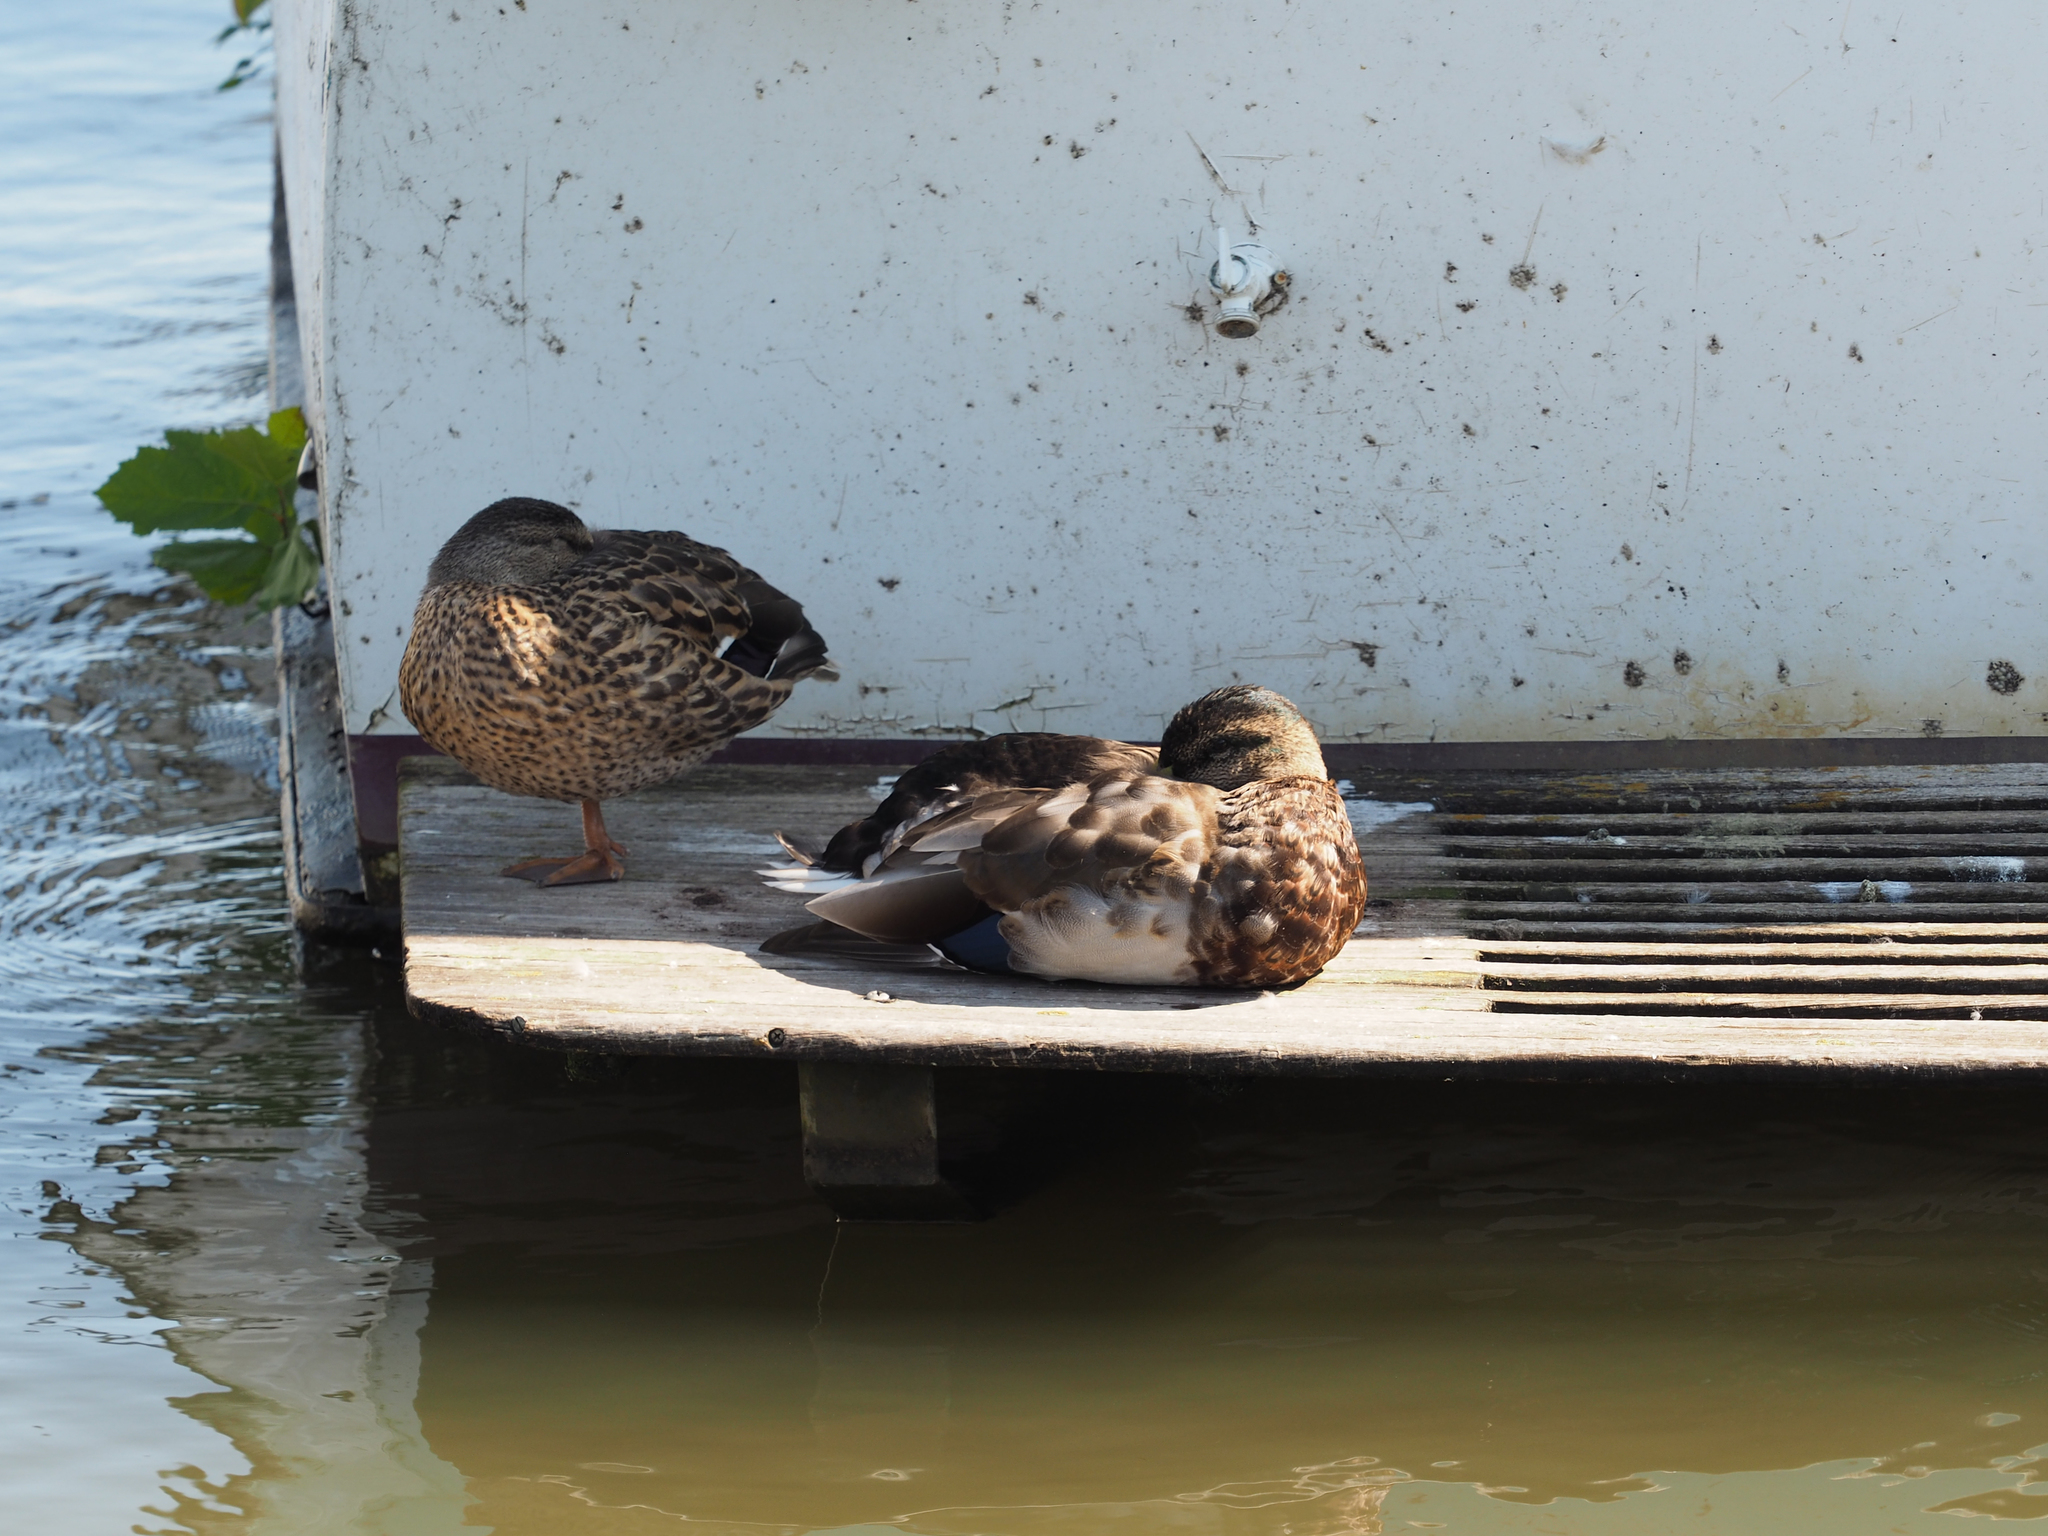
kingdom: Animalia
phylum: Chordata
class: Aves
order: Anseriformes
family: Anatidae
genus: Anas
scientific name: Anas platyrhynchos
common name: Mallard
